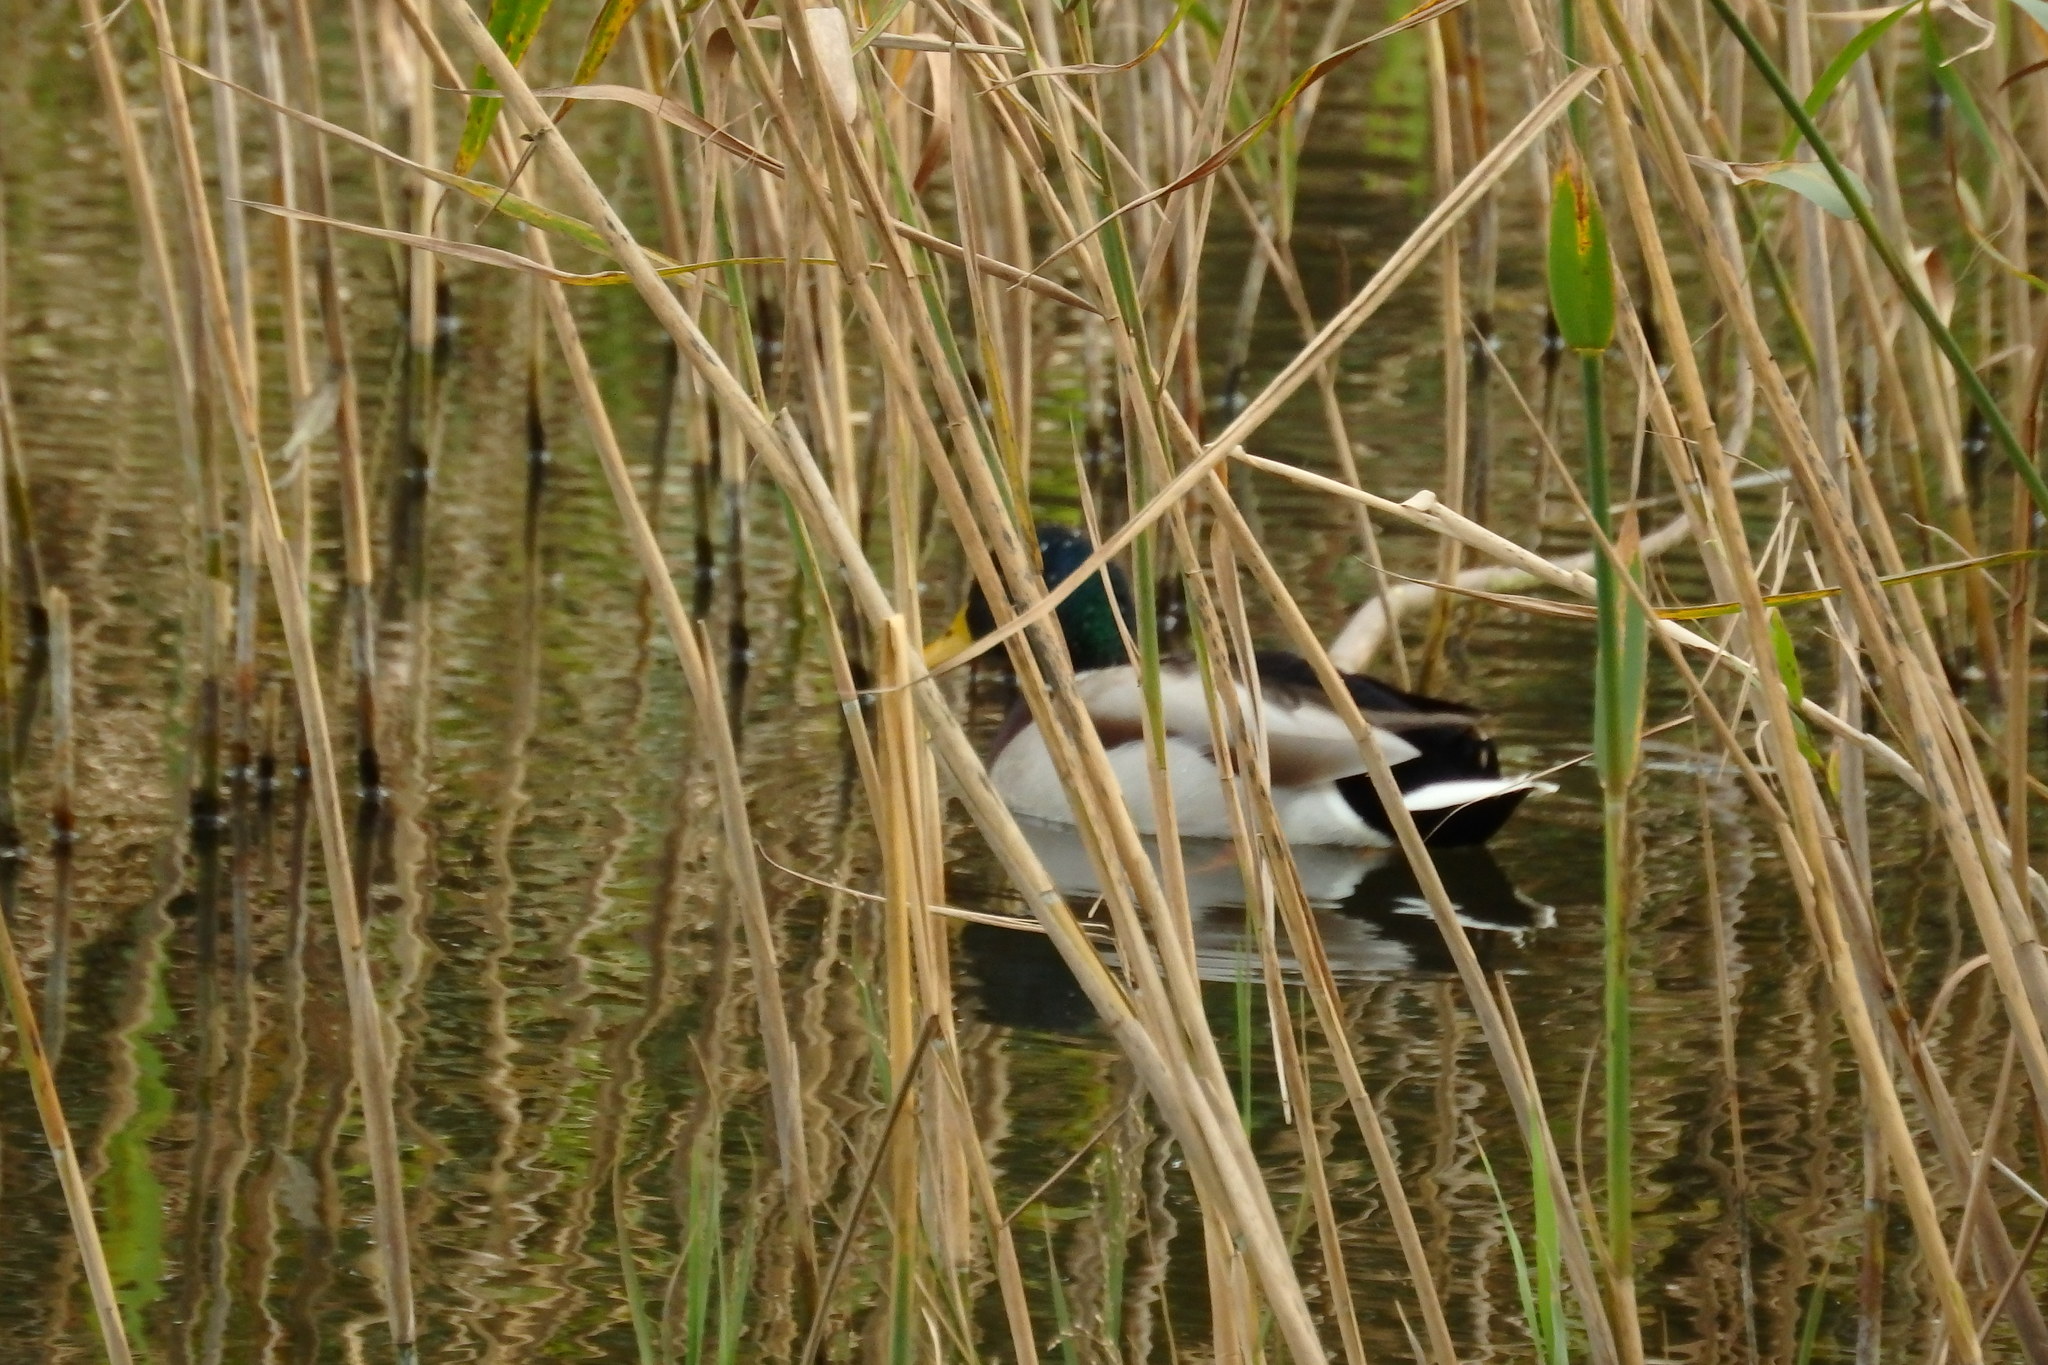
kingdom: Animalia
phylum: Chordata
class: Aves
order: Anseriformes
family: Anatidae
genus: Anas
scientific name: Anas platyrhynchos
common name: Mallard
